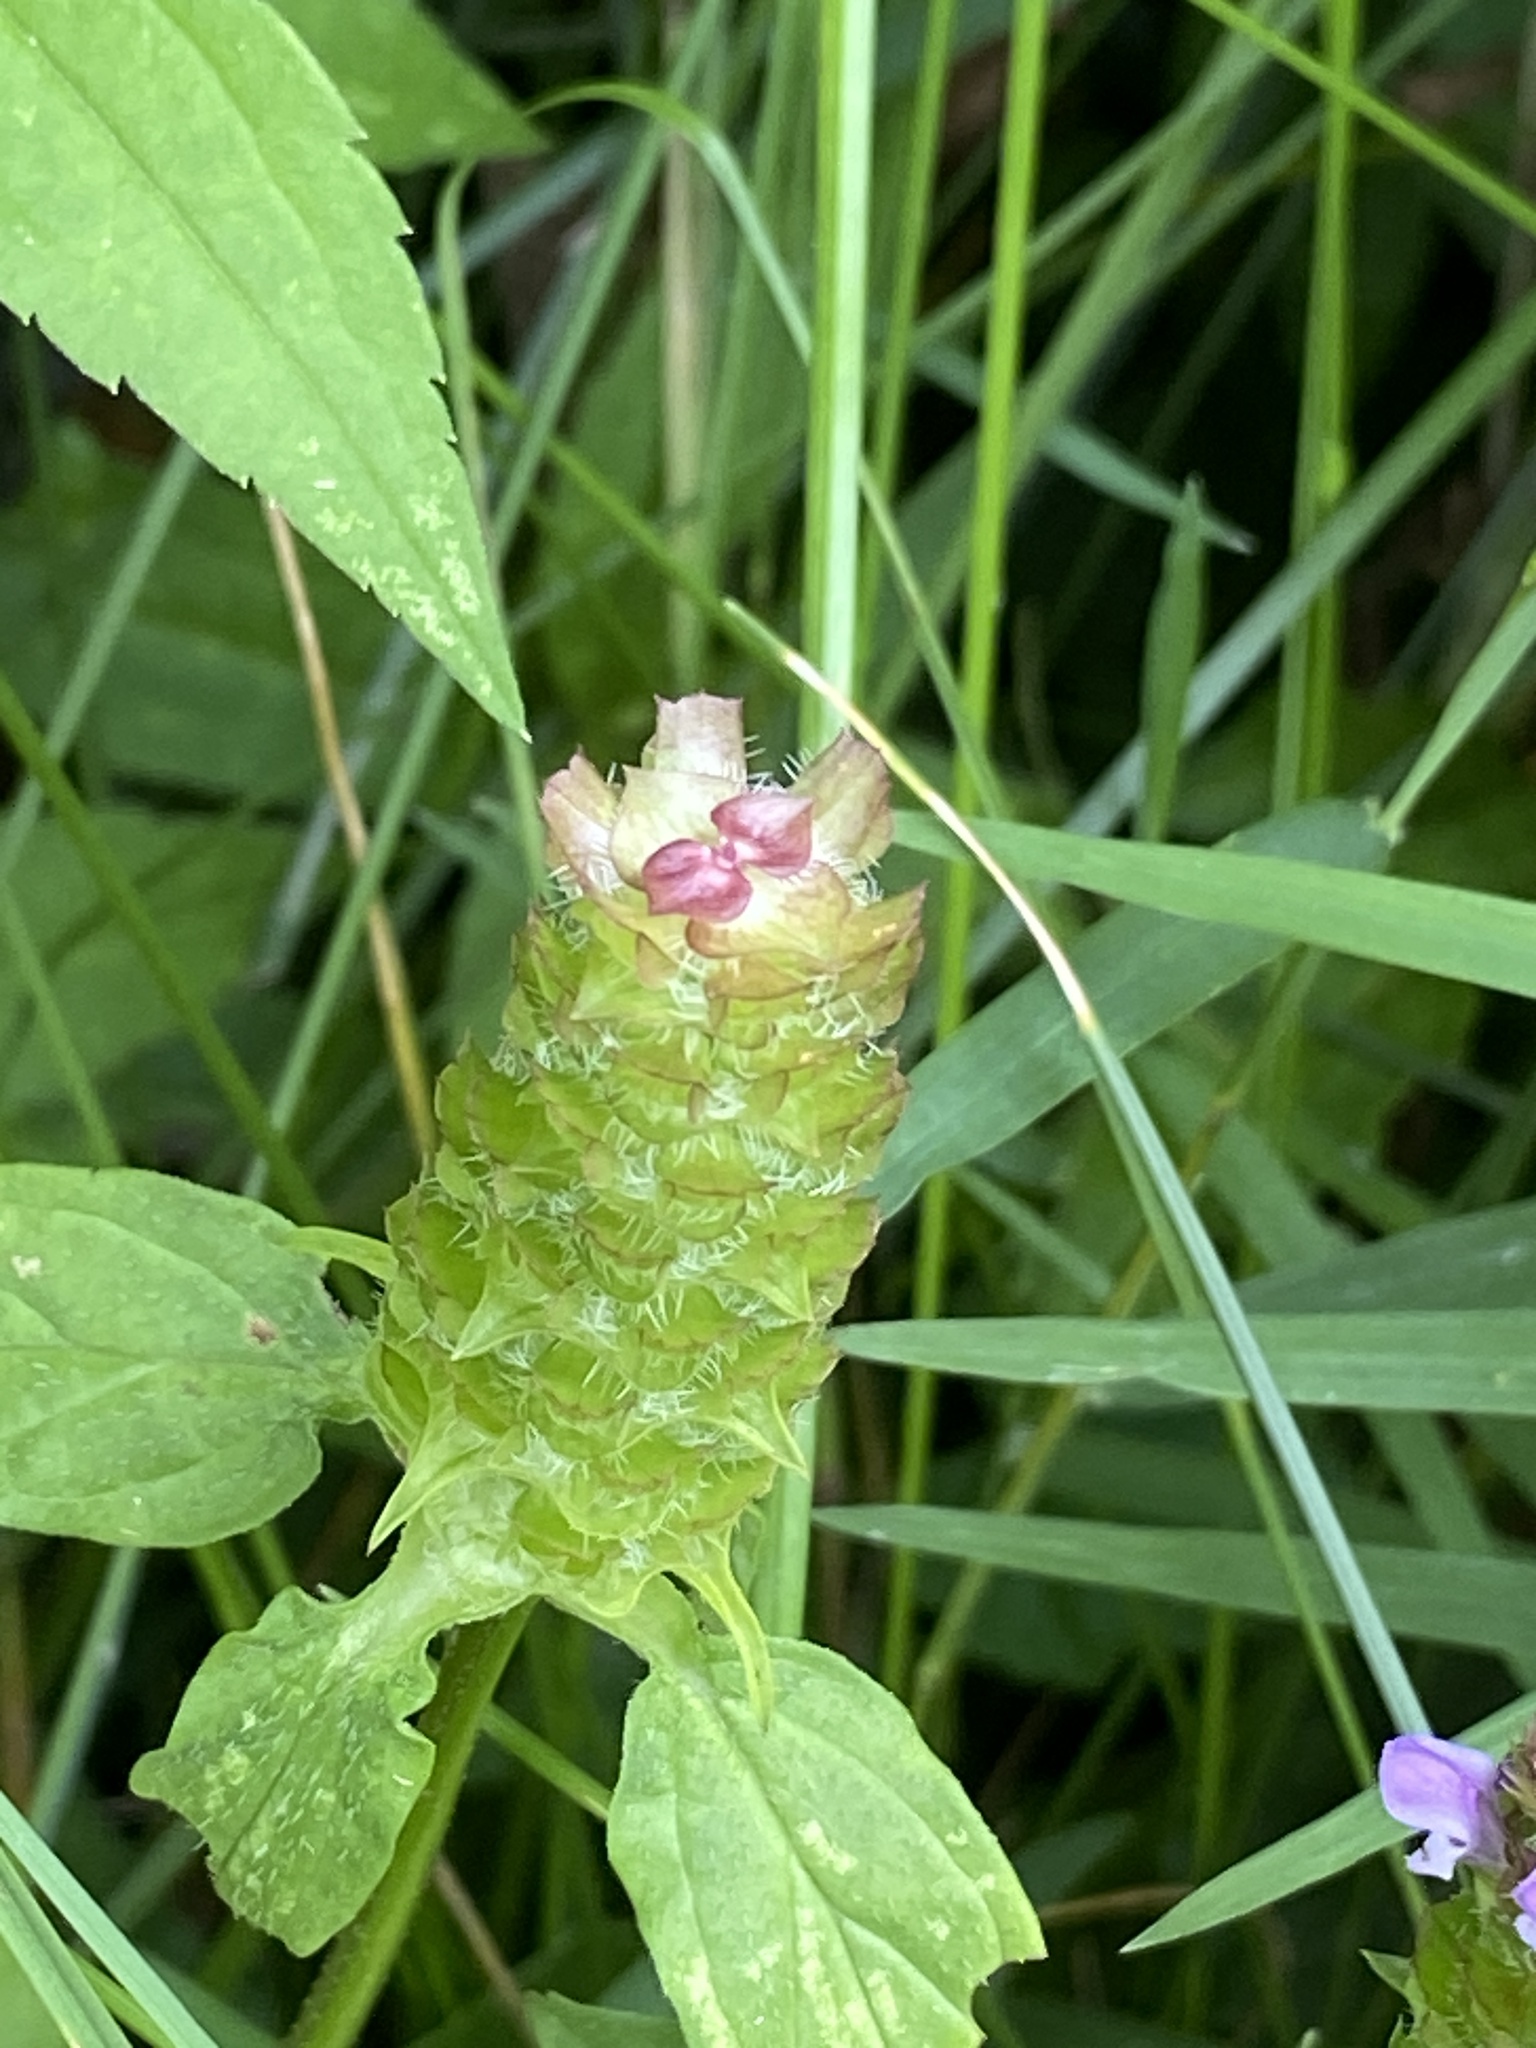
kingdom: Plantae
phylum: Tracheophyta
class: Magnoliopsida
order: Lamiales
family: Lamiaceae
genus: Prunella
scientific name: Prunella vulgaris
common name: Heal-all
